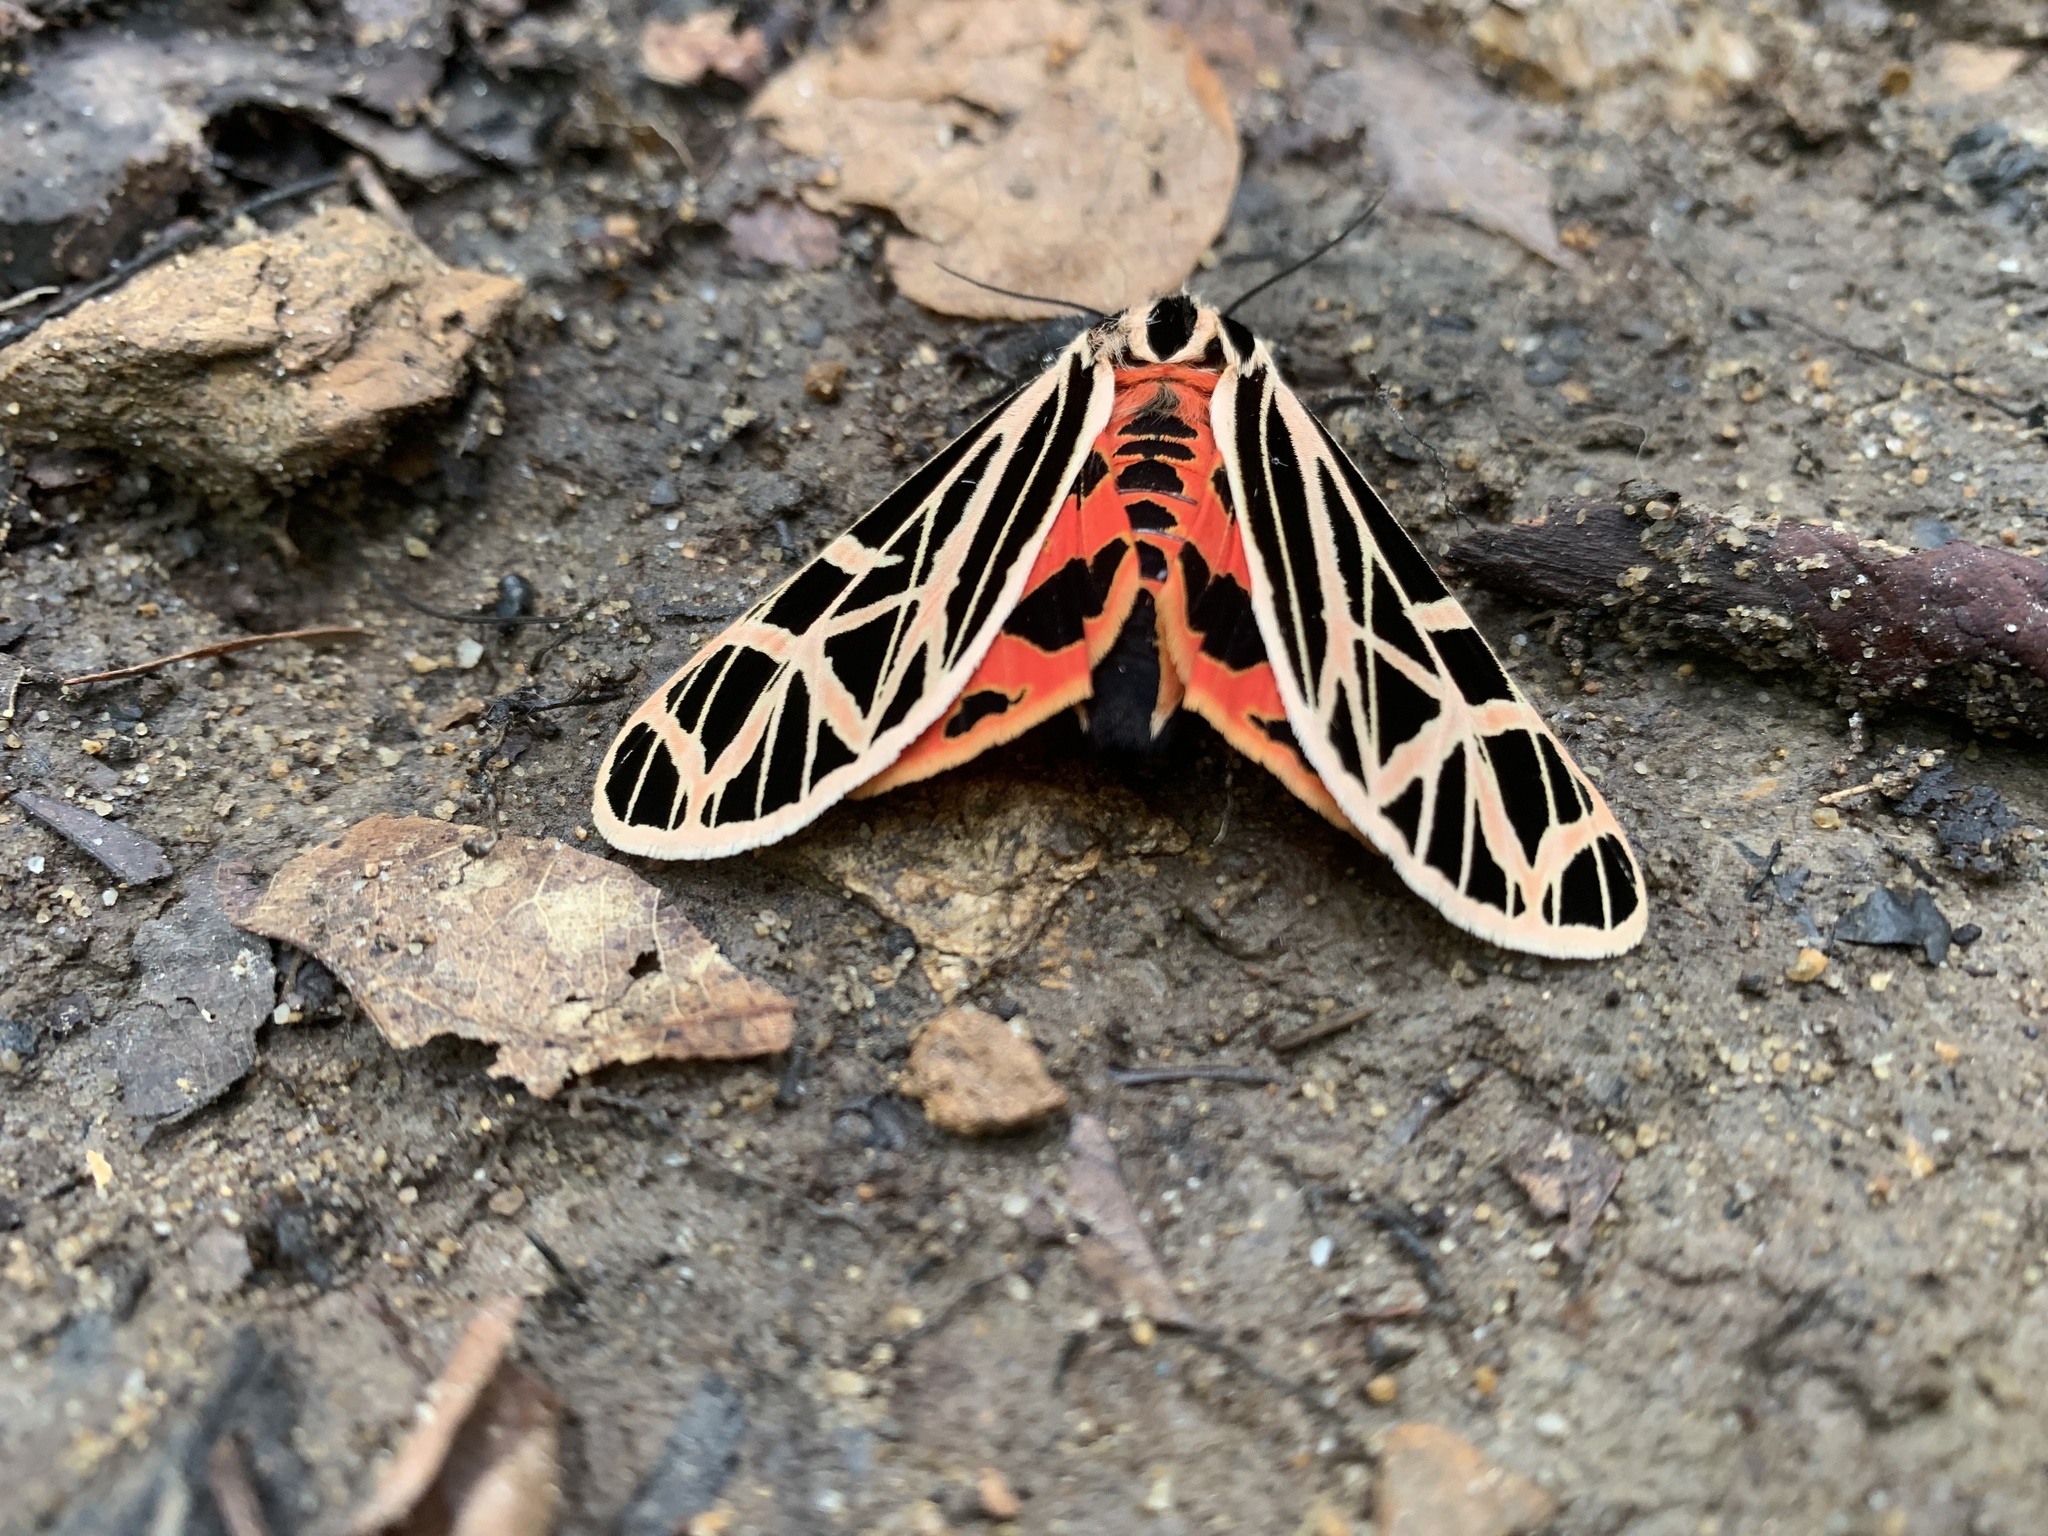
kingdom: Animalia
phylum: Arthropoda
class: Insecta
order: Lepidoptera
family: Erebidae
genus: Grammia
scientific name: Grammia virgo
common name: Virgin tiger moth
